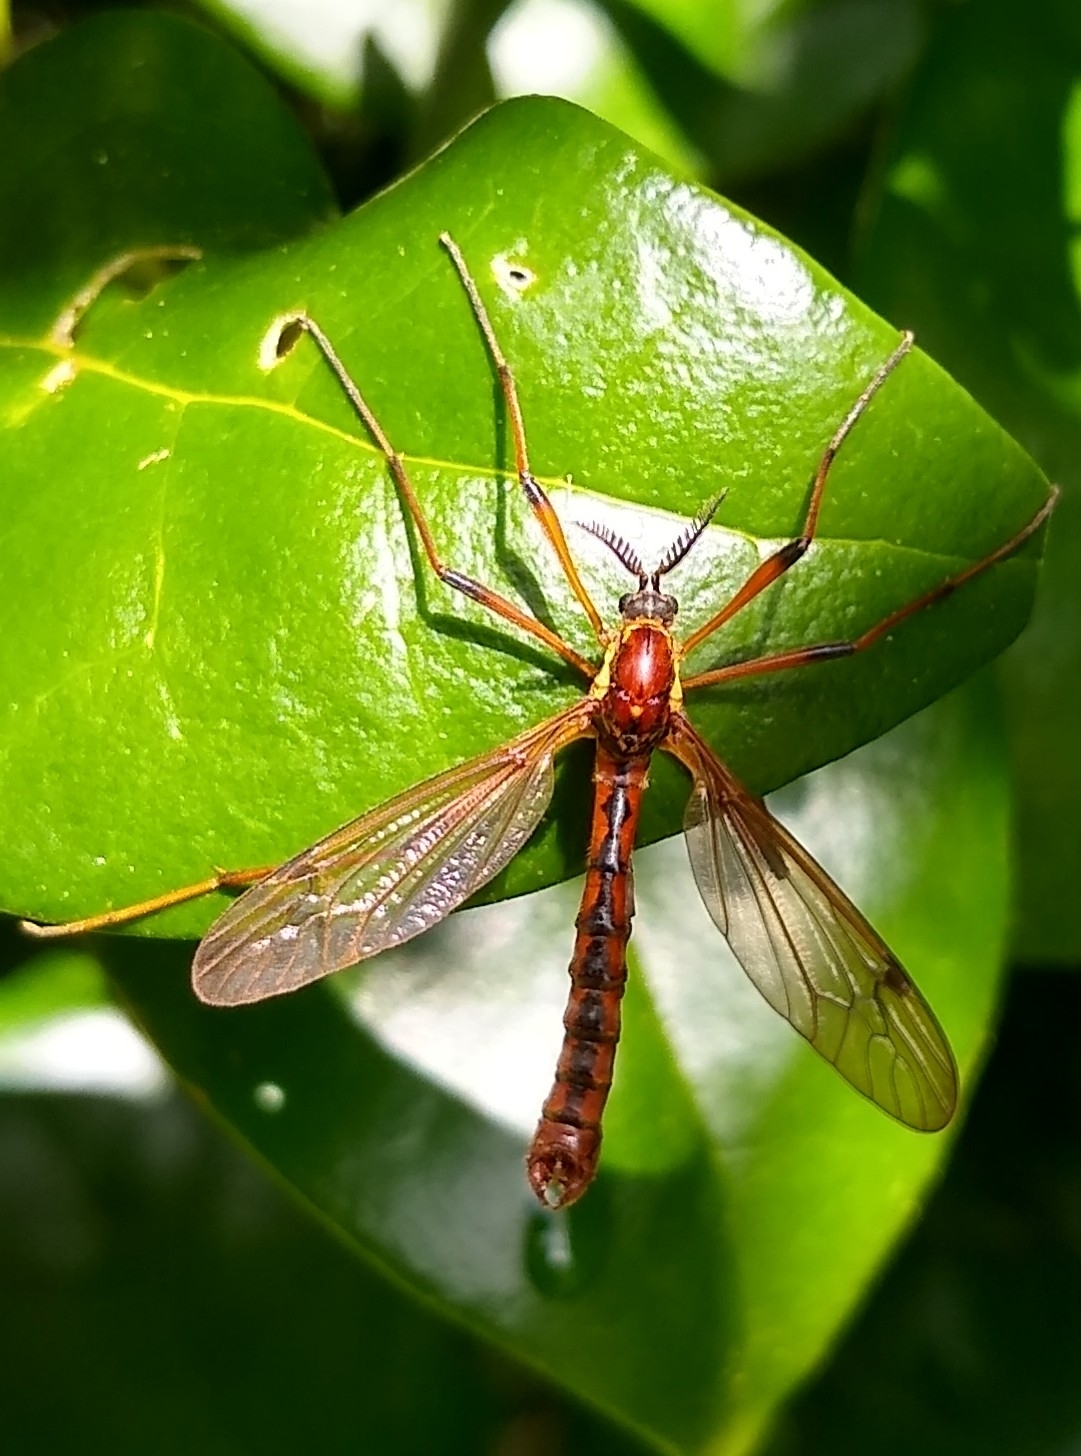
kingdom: Animalia
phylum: Arthropoda
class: Insecta
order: Diptera
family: Tipulidae
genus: Phoroctenia
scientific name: Phoroctenia vittata
